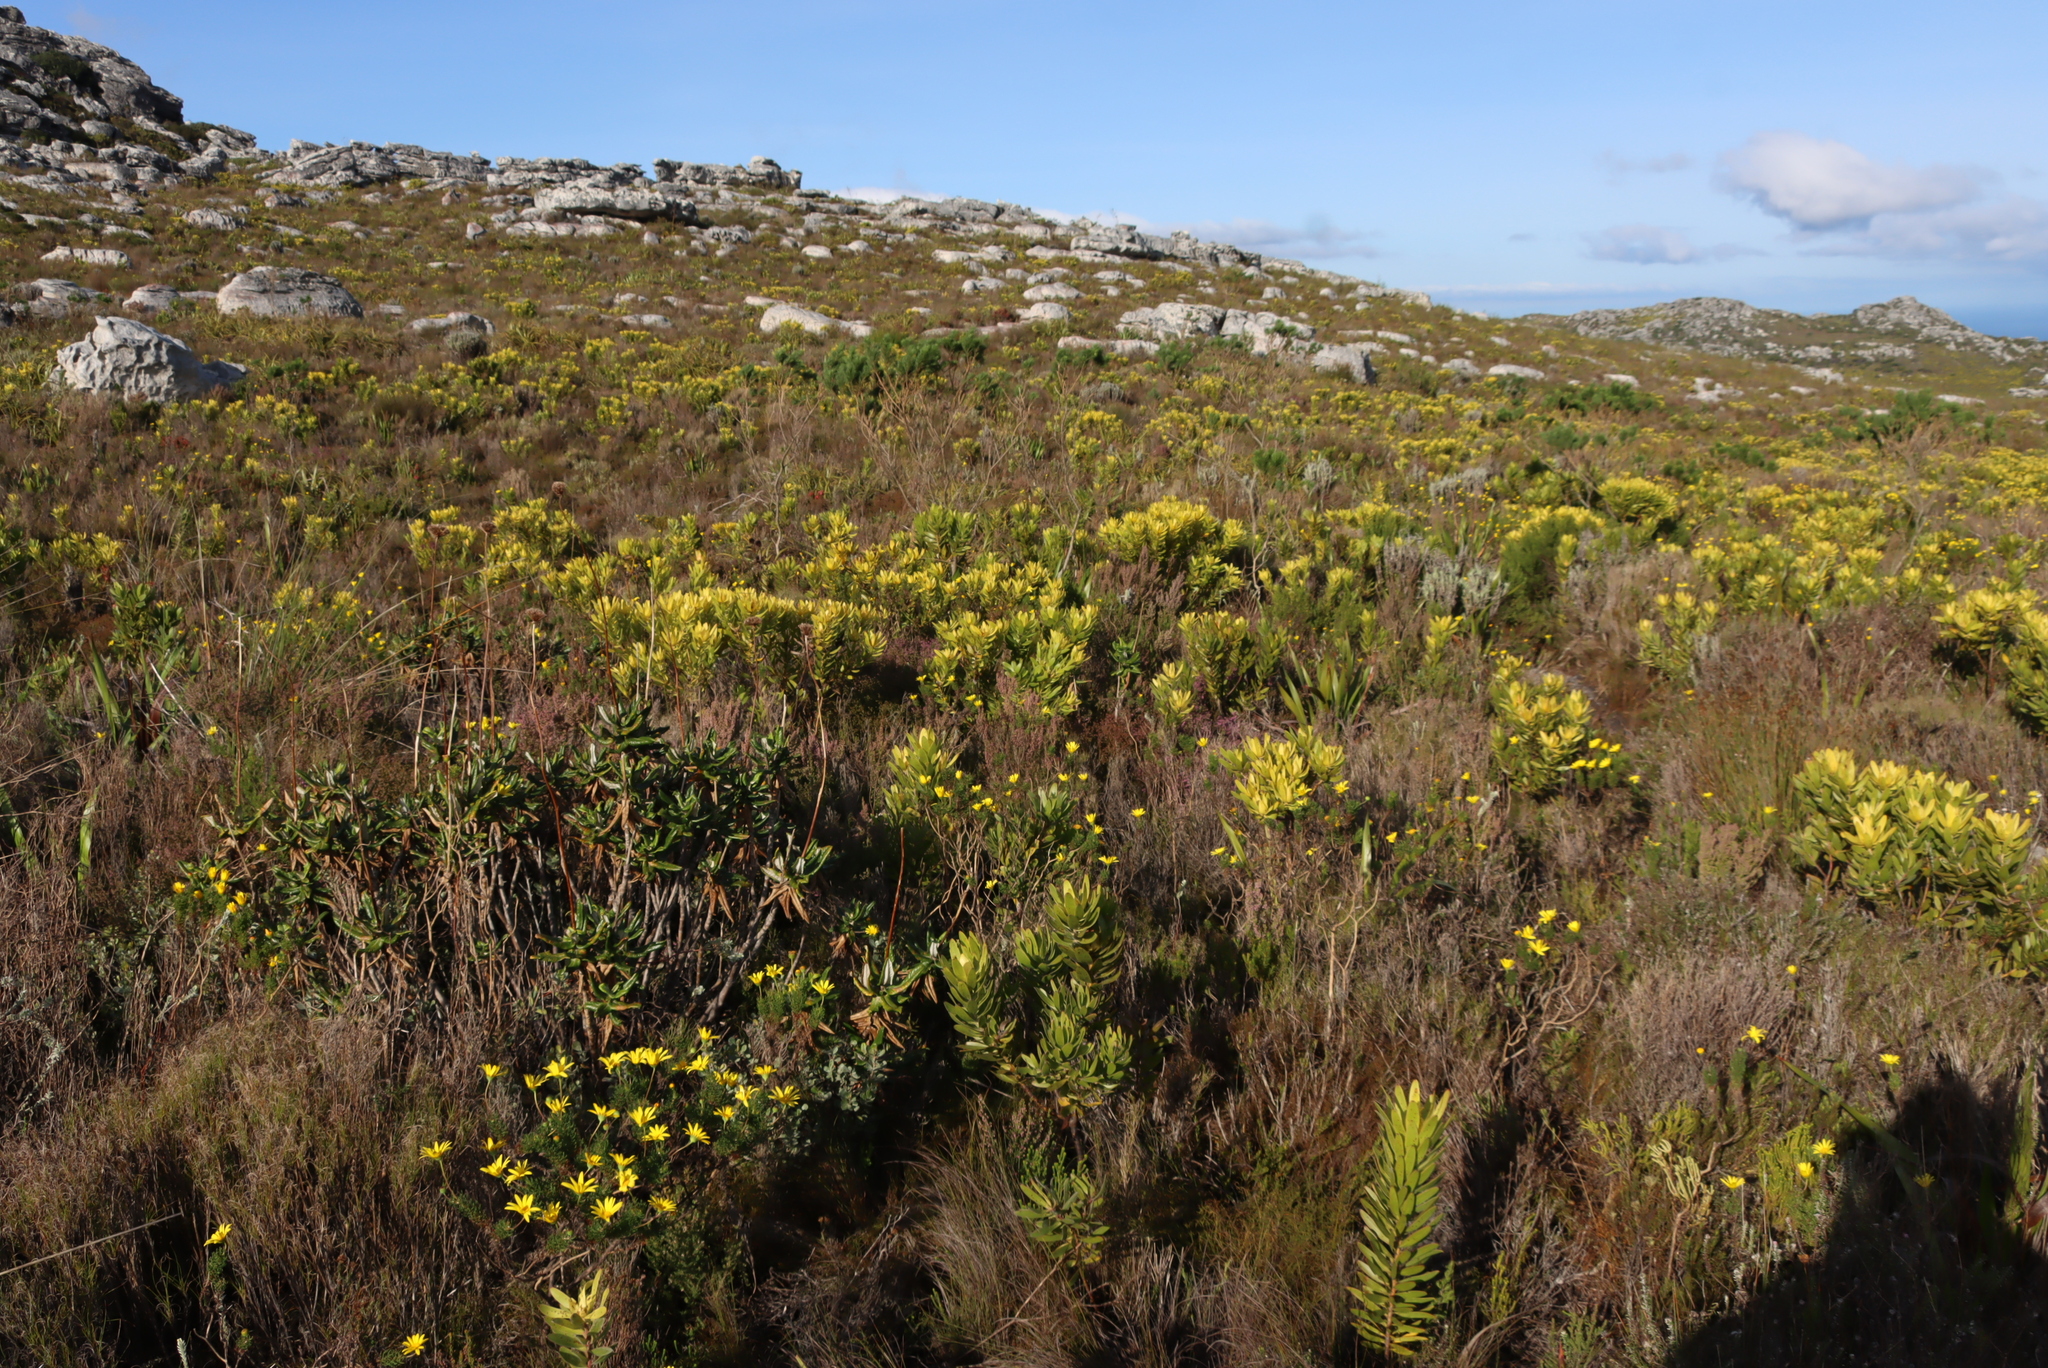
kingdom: Plantae
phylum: Tracheophyta
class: Magnoliopsida
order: Asterales
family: Asteraceae
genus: Euryops
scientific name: Euryops abrotanifolius
